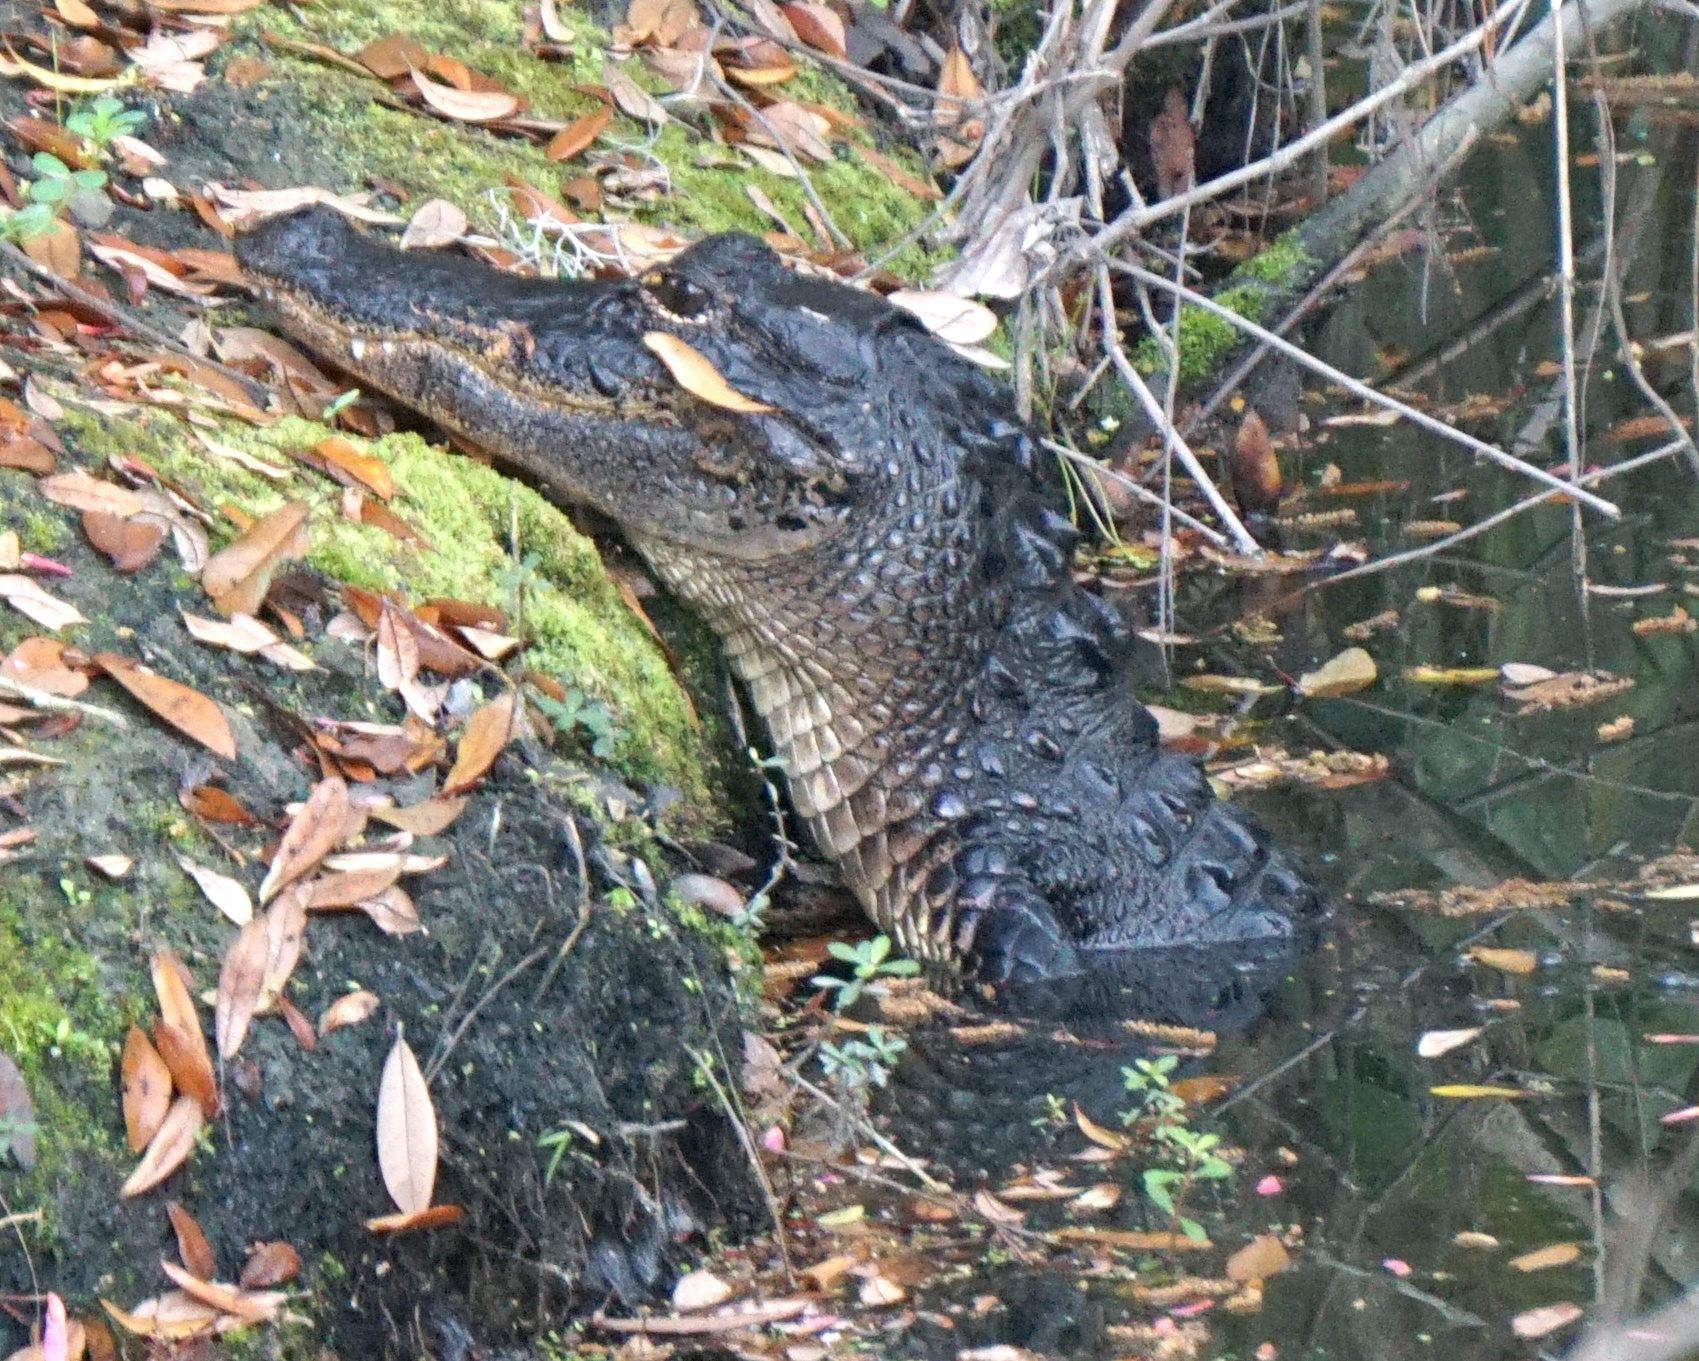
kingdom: Animalia
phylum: Chordata
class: Crocodylia
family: Alligatoridae
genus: Alligator
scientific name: Alligator mississippiensis
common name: American alligator
